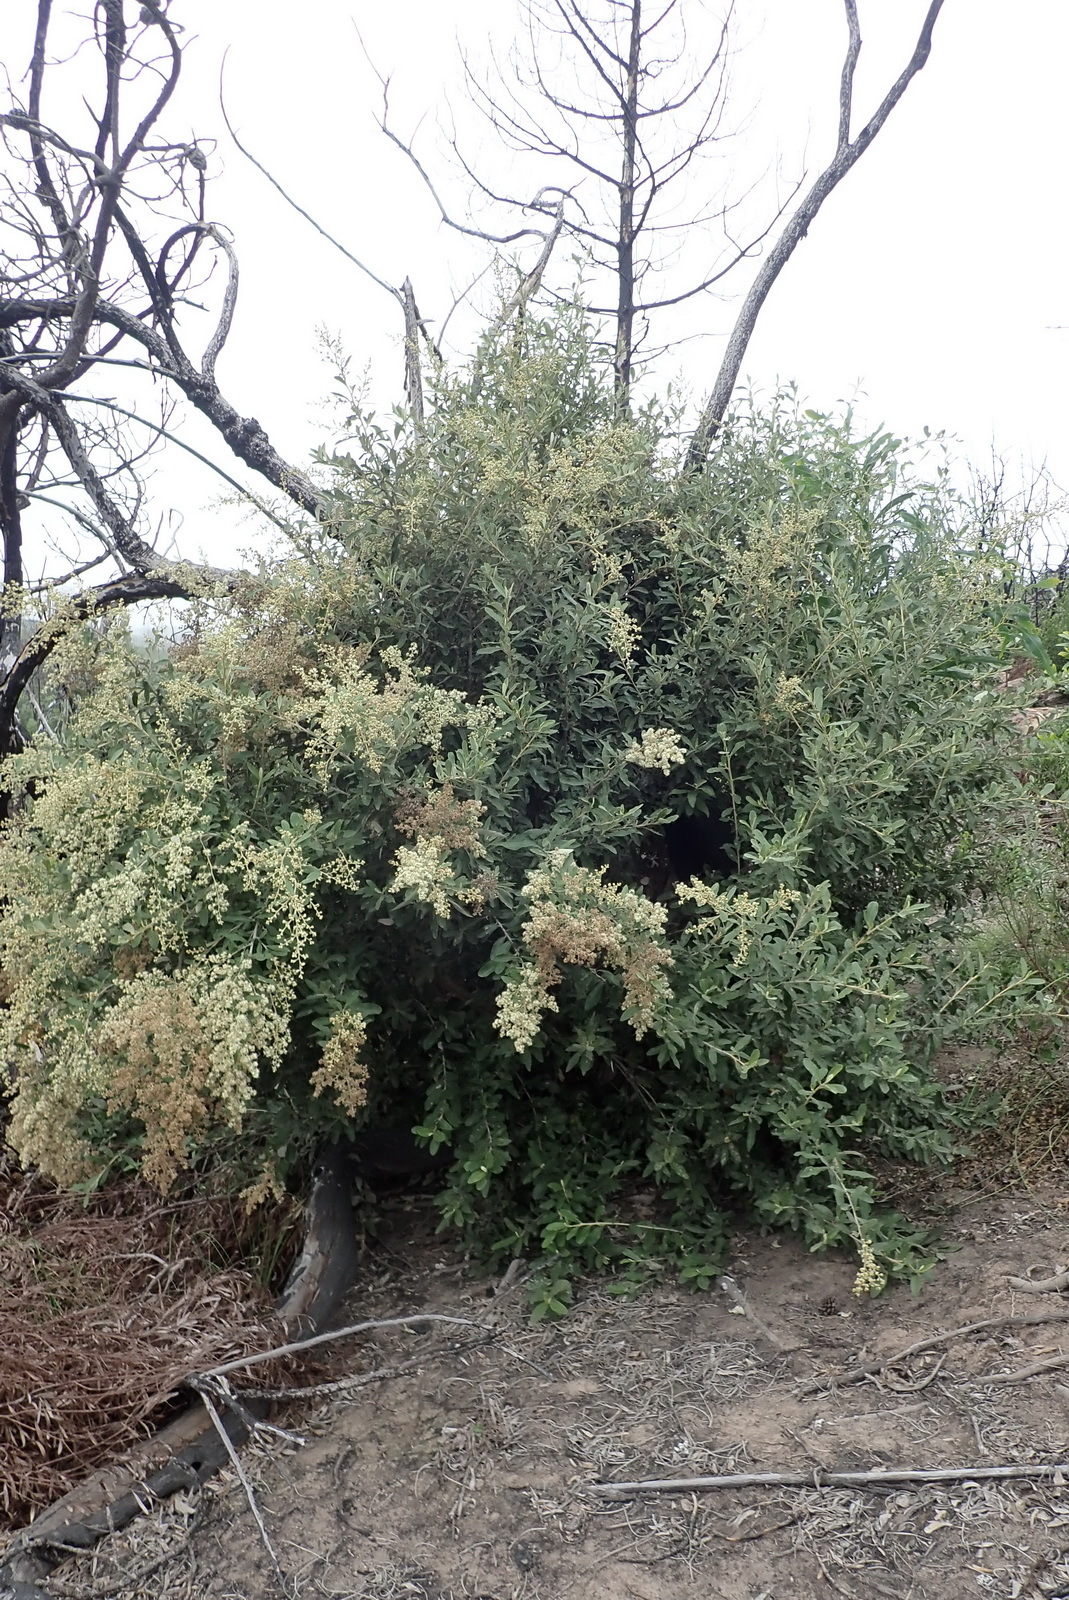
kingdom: Plantae
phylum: Tracheophyta
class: Magnoliopsida
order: Asterales
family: Asteraceae
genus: Tarchonanthus
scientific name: Tarchonanthus littoralis
